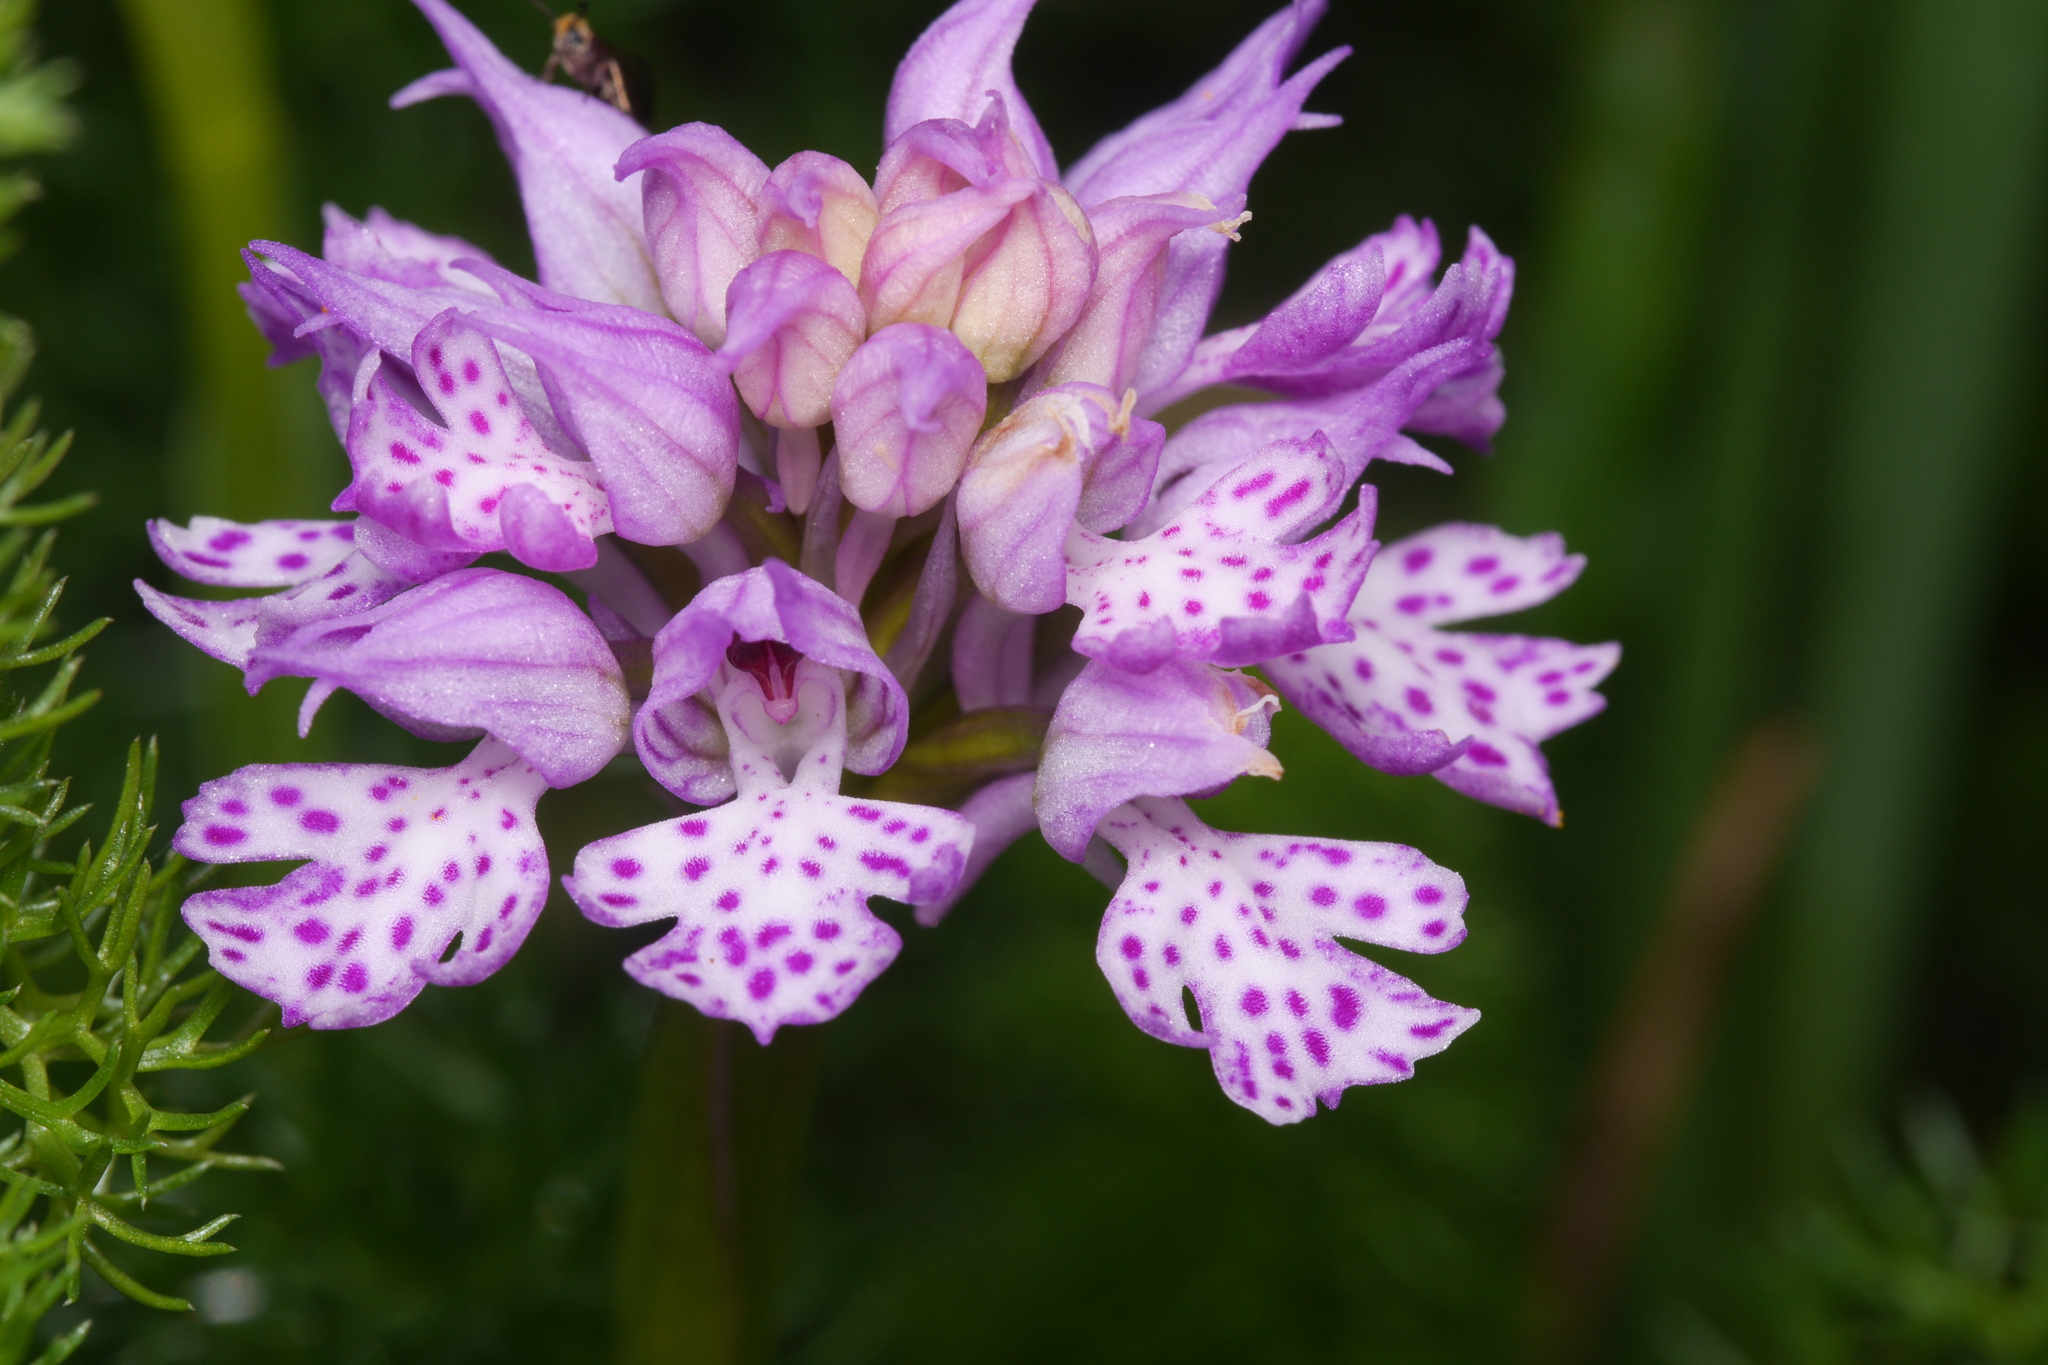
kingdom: Plantae
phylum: Tracheophyta
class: Liliopsida
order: Asparagales
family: Orchidaceae
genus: Neotinea
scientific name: Neotinea tridentata
